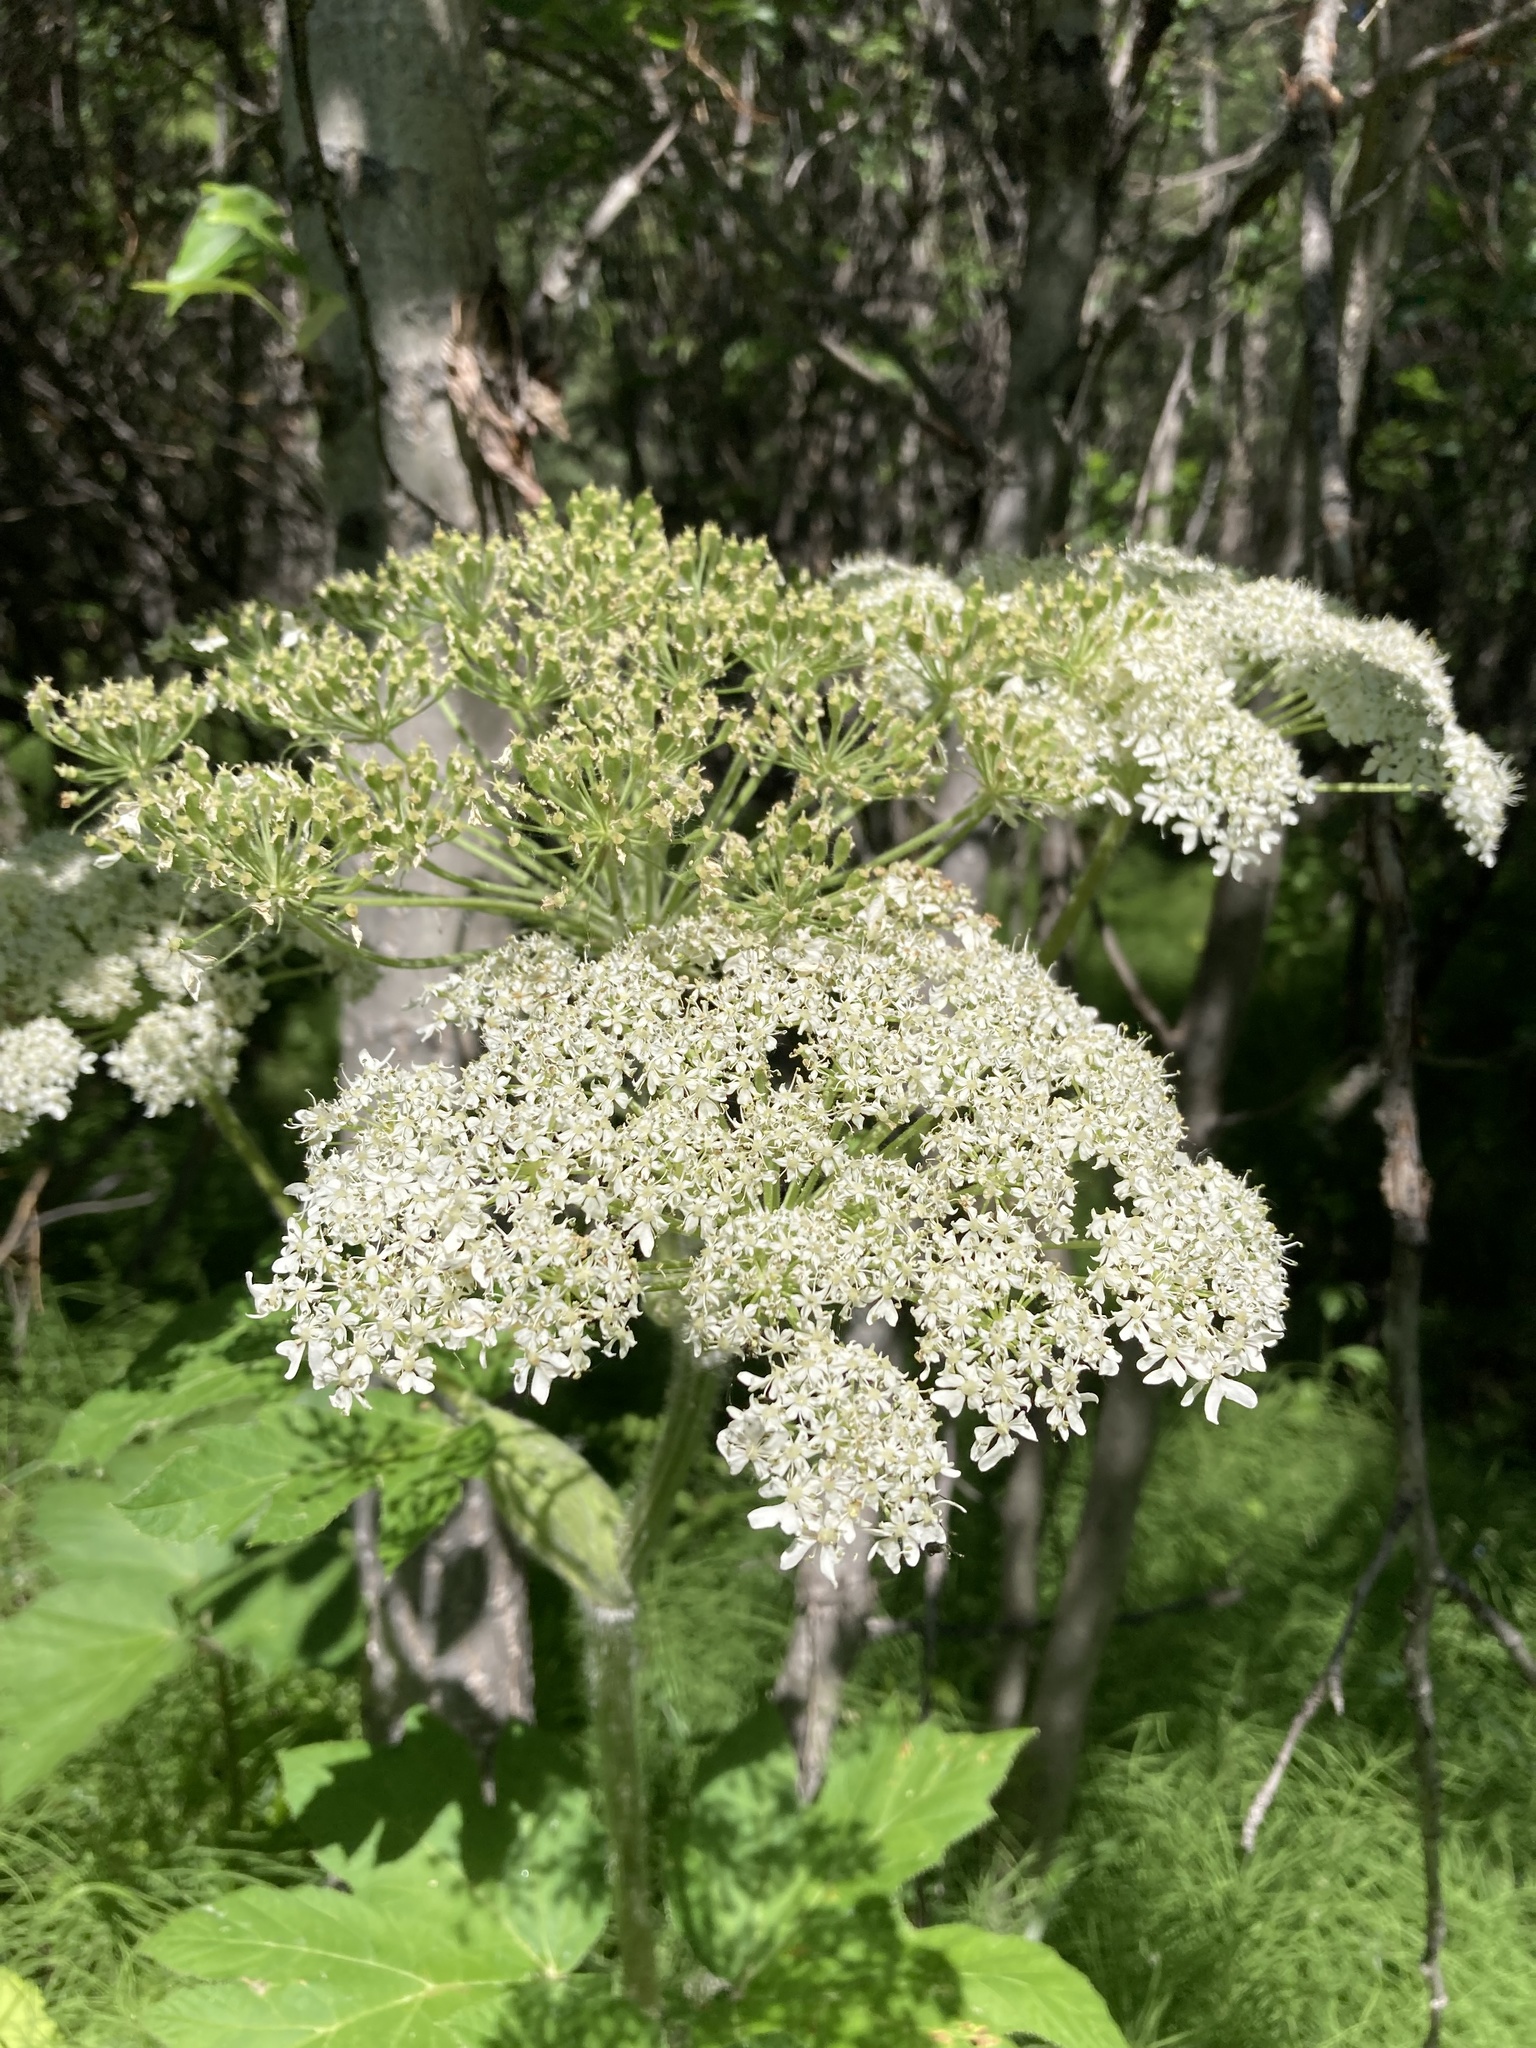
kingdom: Plantae
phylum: Tracheophyta
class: Magnoliopsida
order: Apiales
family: Apiaceae
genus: Heracleum
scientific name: Heracleum maximum
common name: American cow parsnip
